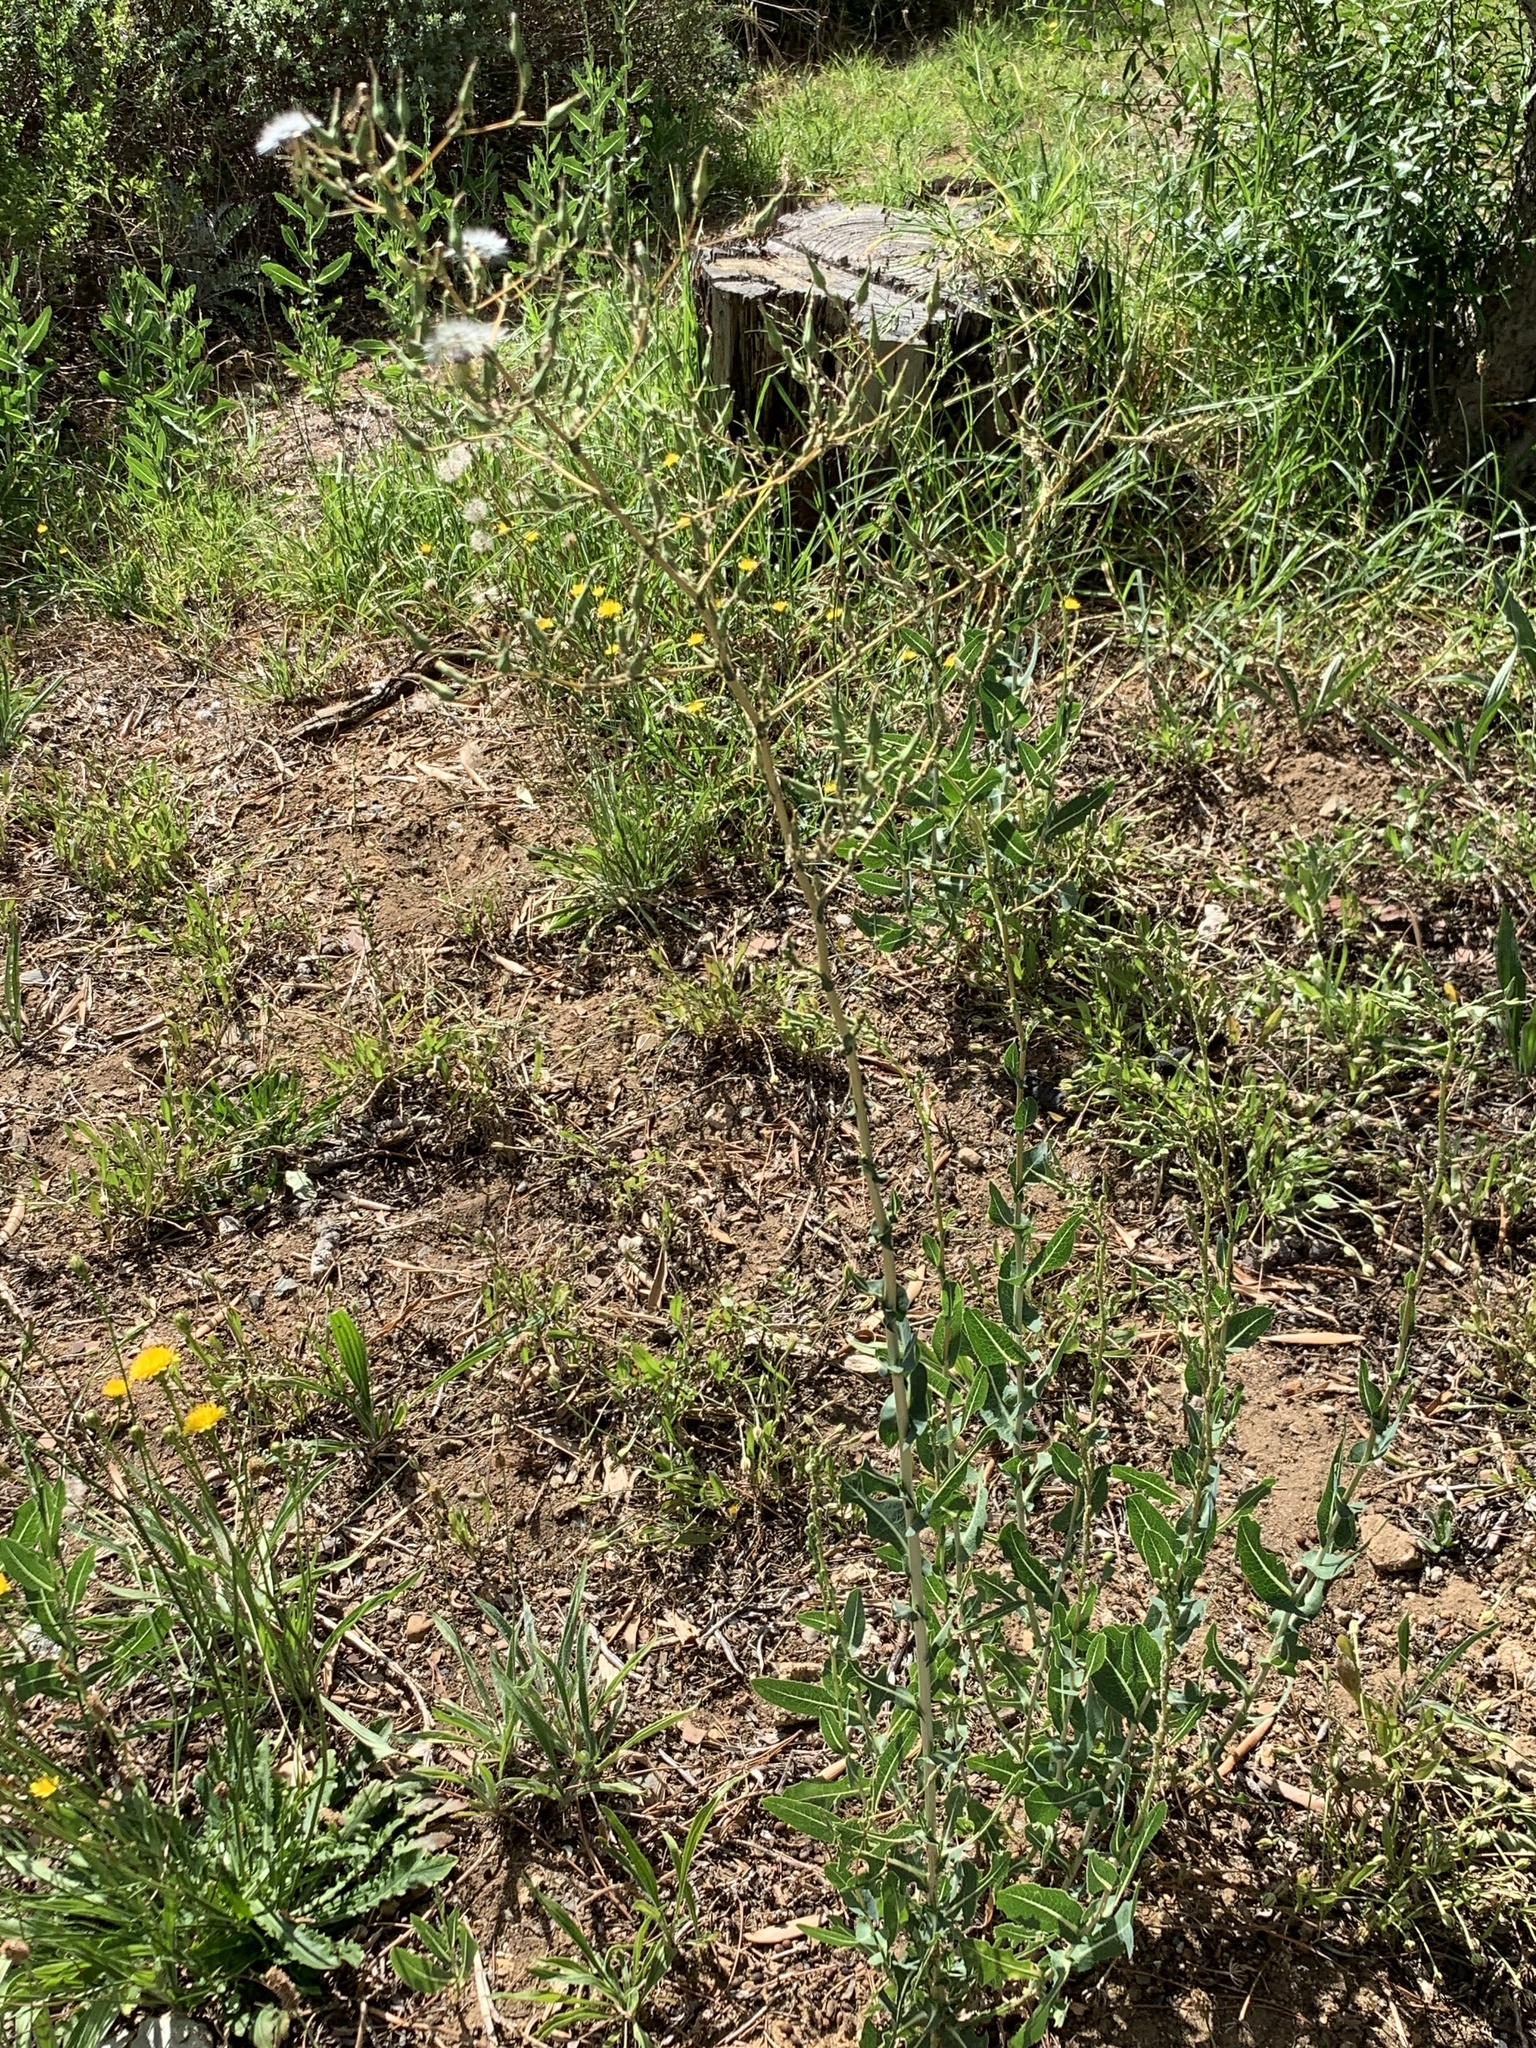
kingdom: Plantae
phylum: Tracheophyta
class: Magnoliopsida
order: Asterales
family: Asteraceae
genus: Lactuca
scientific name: Lactuca serriola
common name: Prickly lettuce
